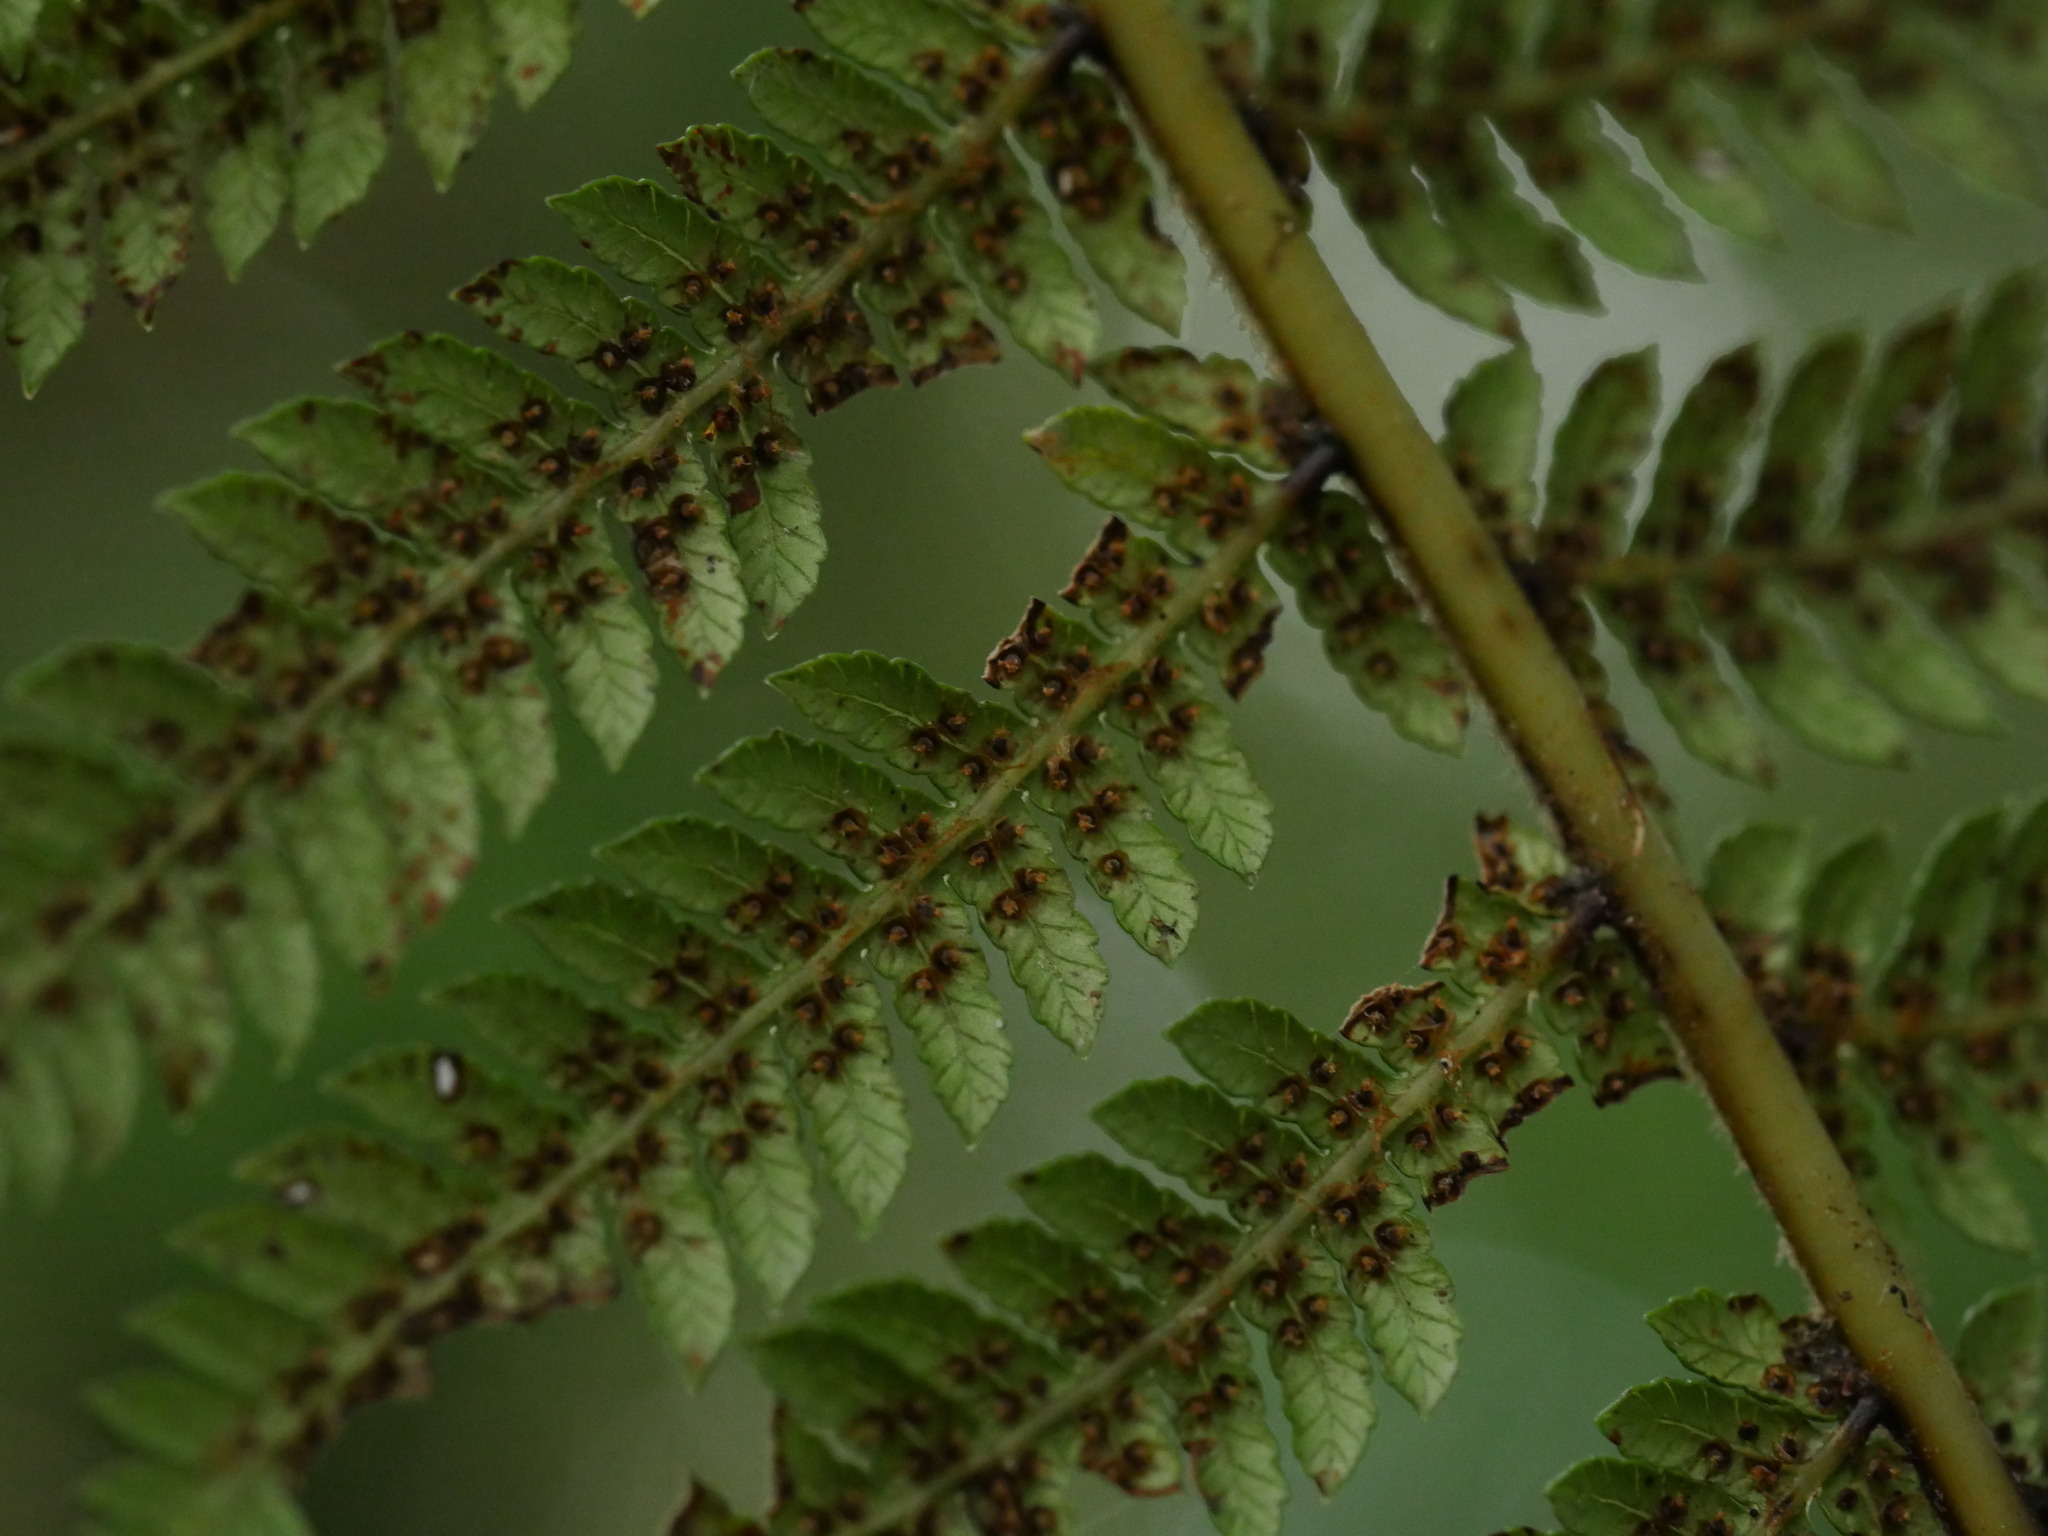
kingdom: Plantae
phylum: Tracheophyta
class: Polypodiopsida
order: Cyatheales
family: Cyatheaceae
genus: Alsophila
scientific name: Alsophila smithii
